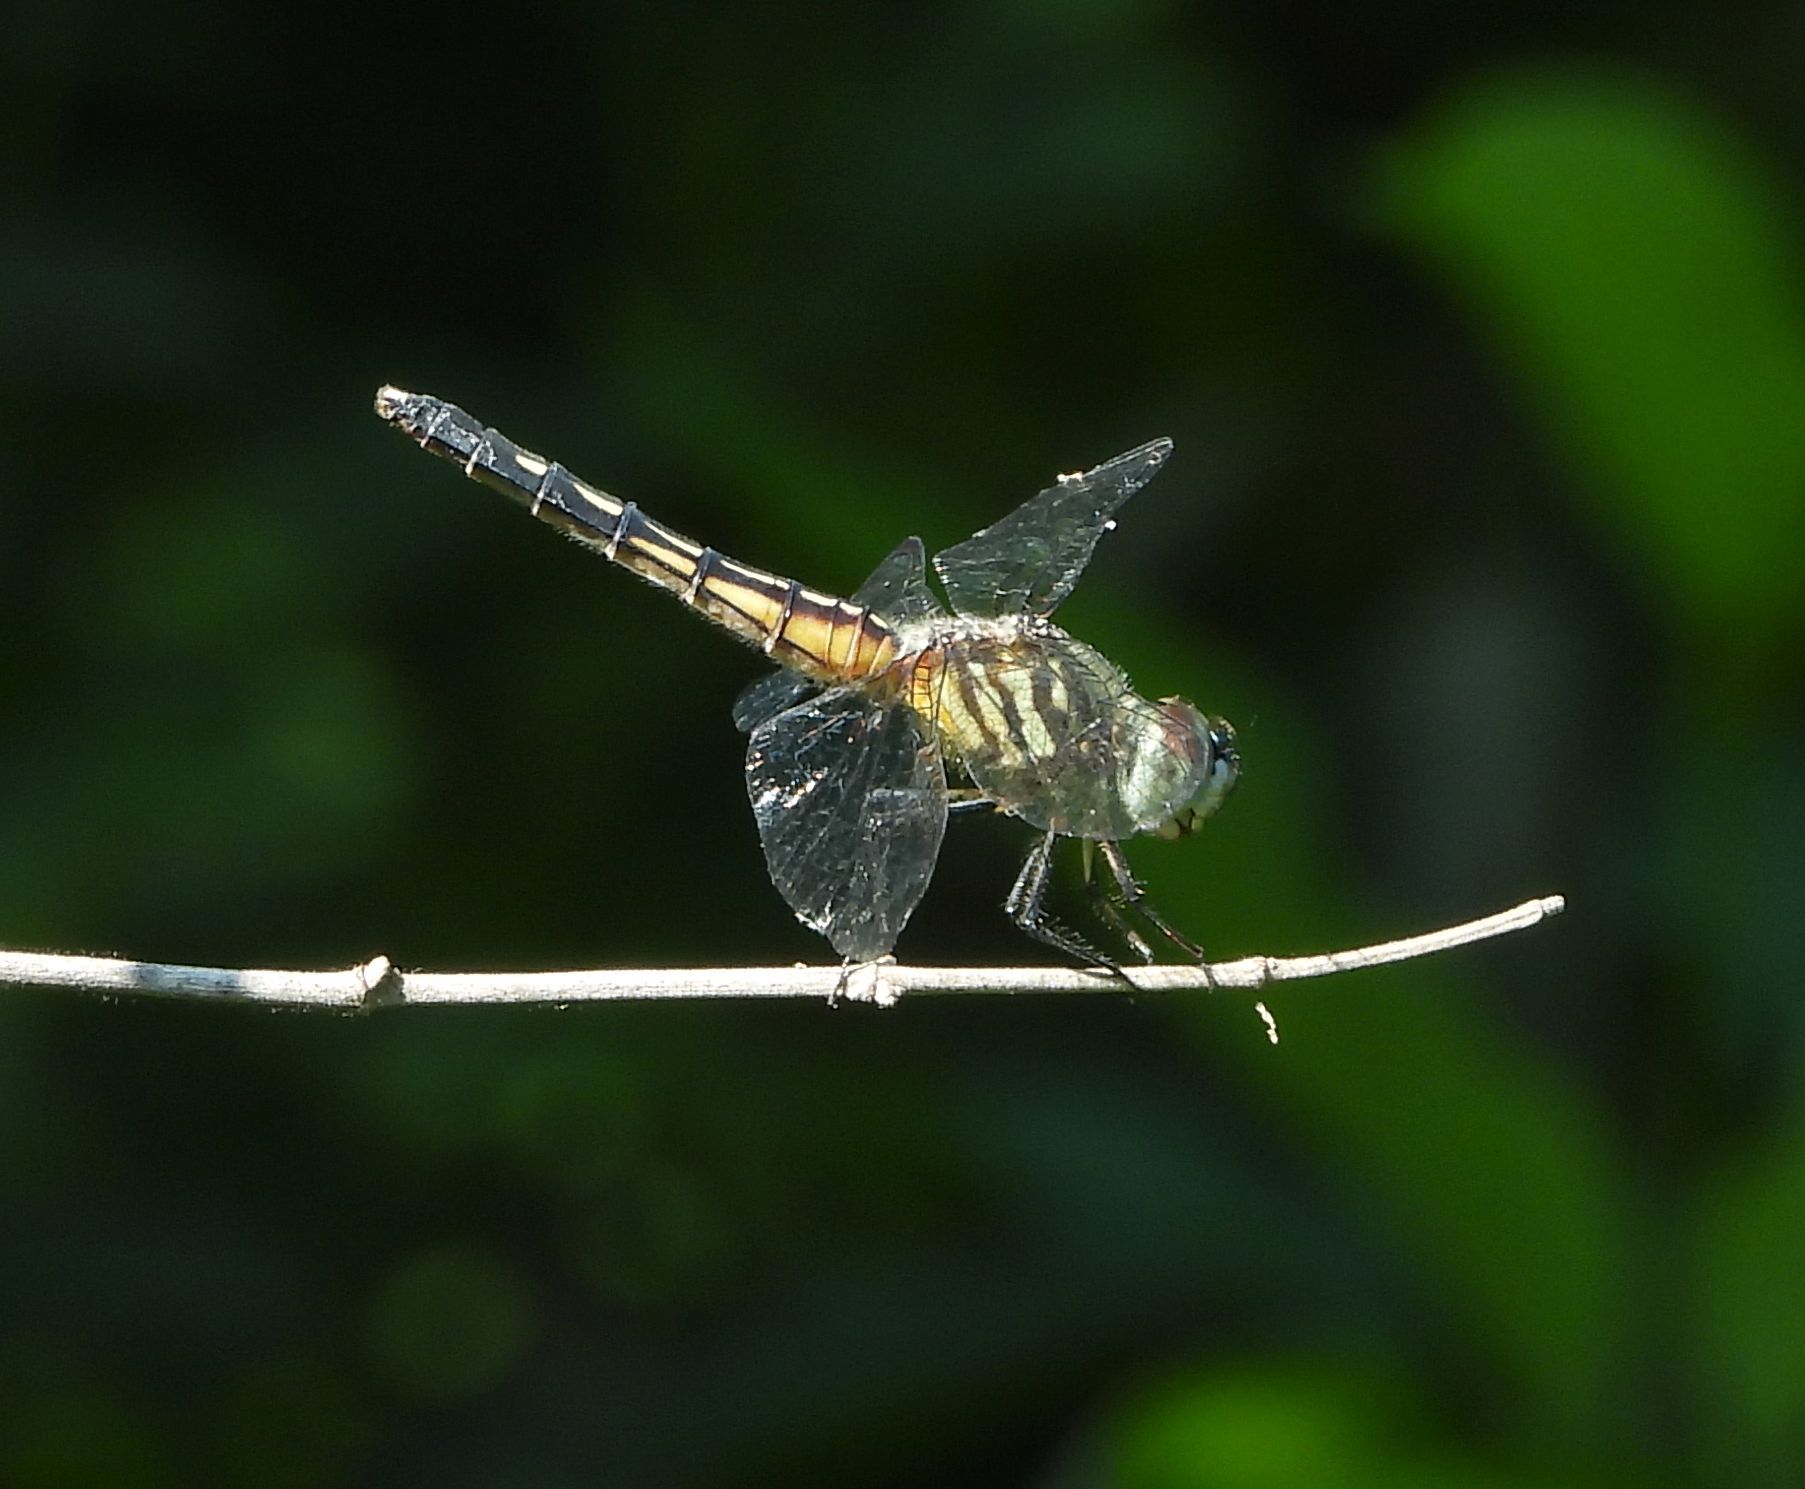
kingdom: Animalia
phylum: Arthropoda
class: Insecta
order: Odonata
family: Libellulidae
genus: Pachydiplax
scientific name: Pachydiplax longipennis
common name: Blue dasher
